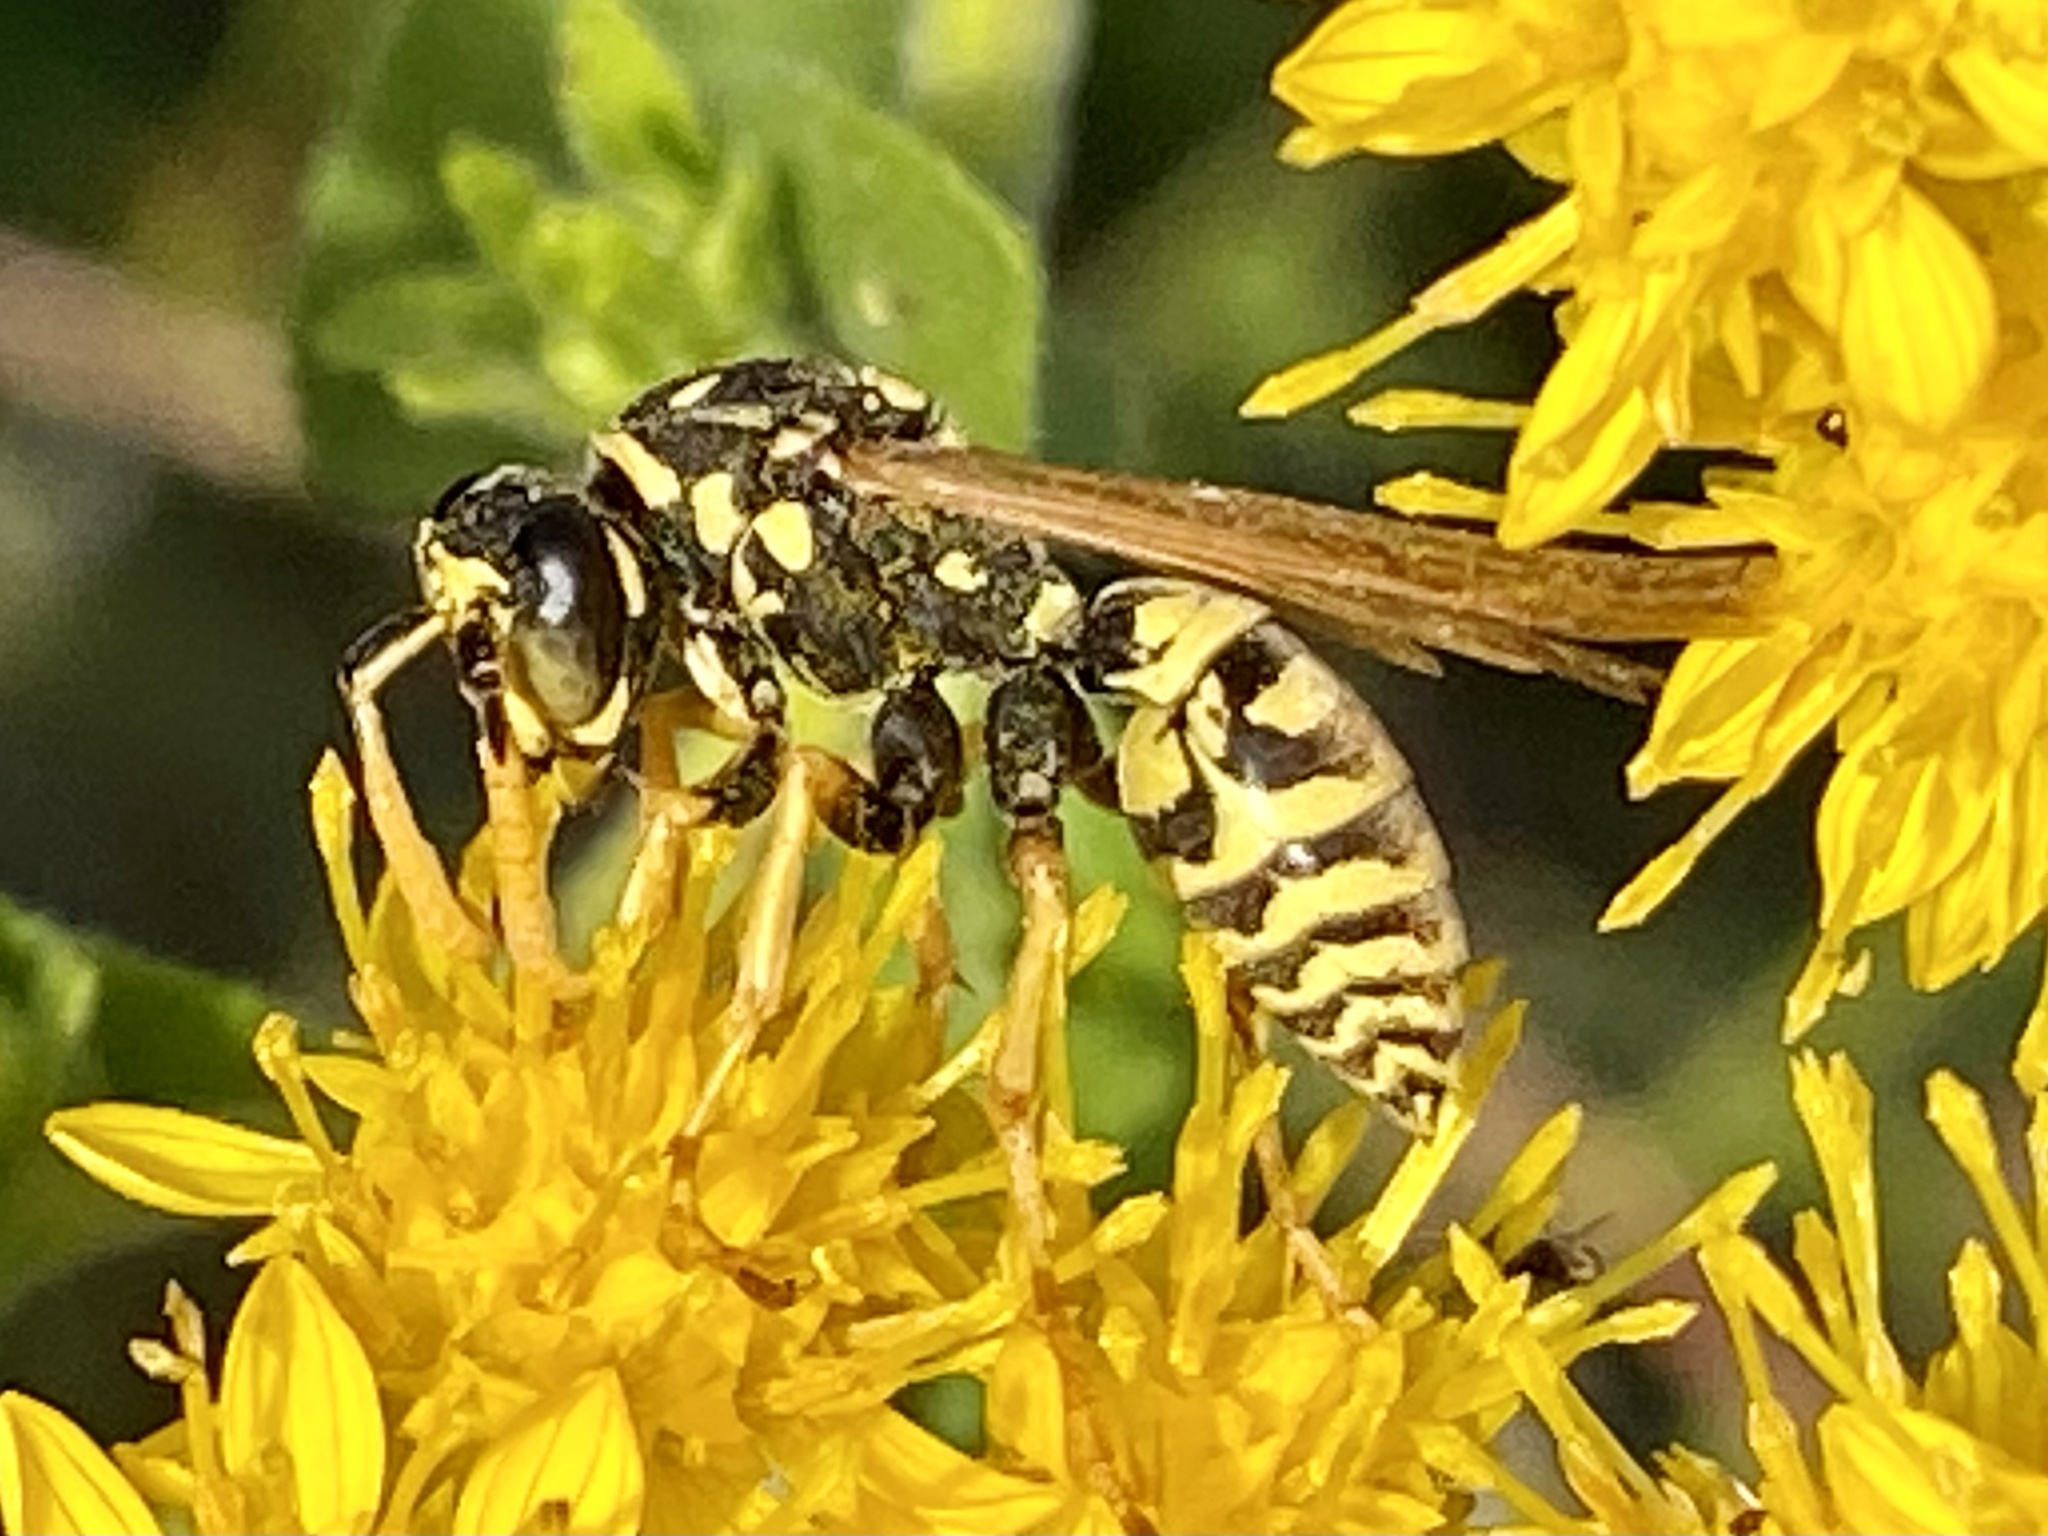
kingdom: Animalia
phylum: Arthropoda
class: Insecta
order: Hymenoptera
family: Eumenidae
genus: Polistes
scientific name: Polistes dominula
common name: Paper wasp
